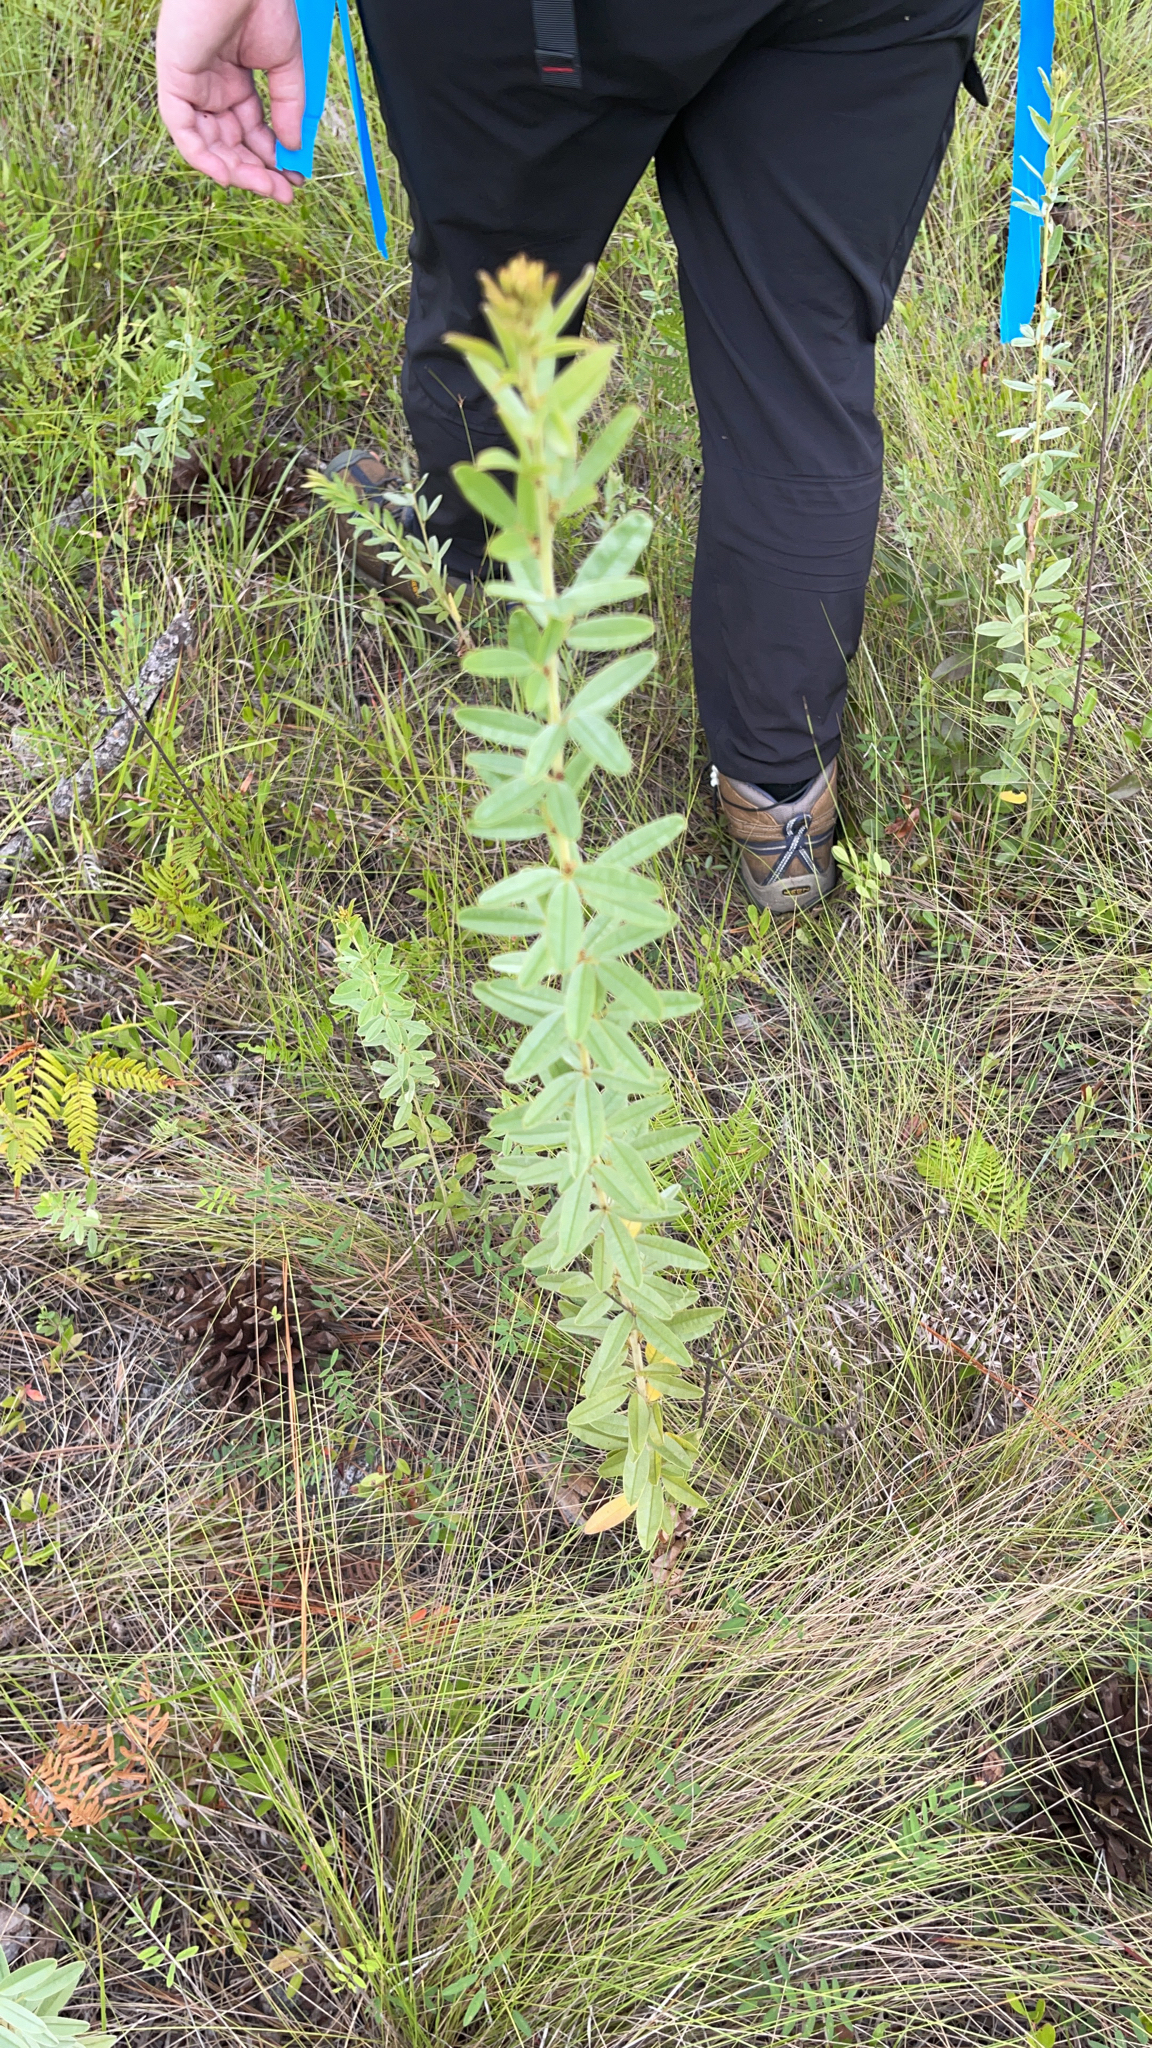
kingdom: Plantae
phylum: Tracheophyta
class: Magnoliopsida
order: Fabales
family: Fabaceae
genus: Lespedeza
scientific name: Lespedeza capitata
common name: Dusty clover
